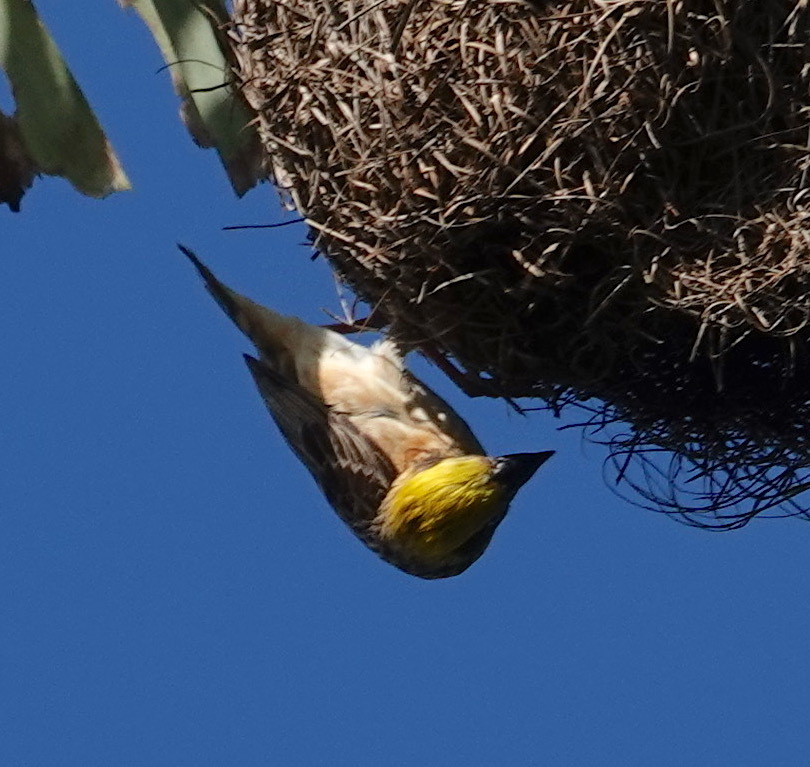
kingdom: Animalia
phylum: Chordata
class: Aves
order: Passeriformes
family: Ploceidae
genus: Ploceus
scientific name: Ploceus philippinus
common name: Baya weaver
